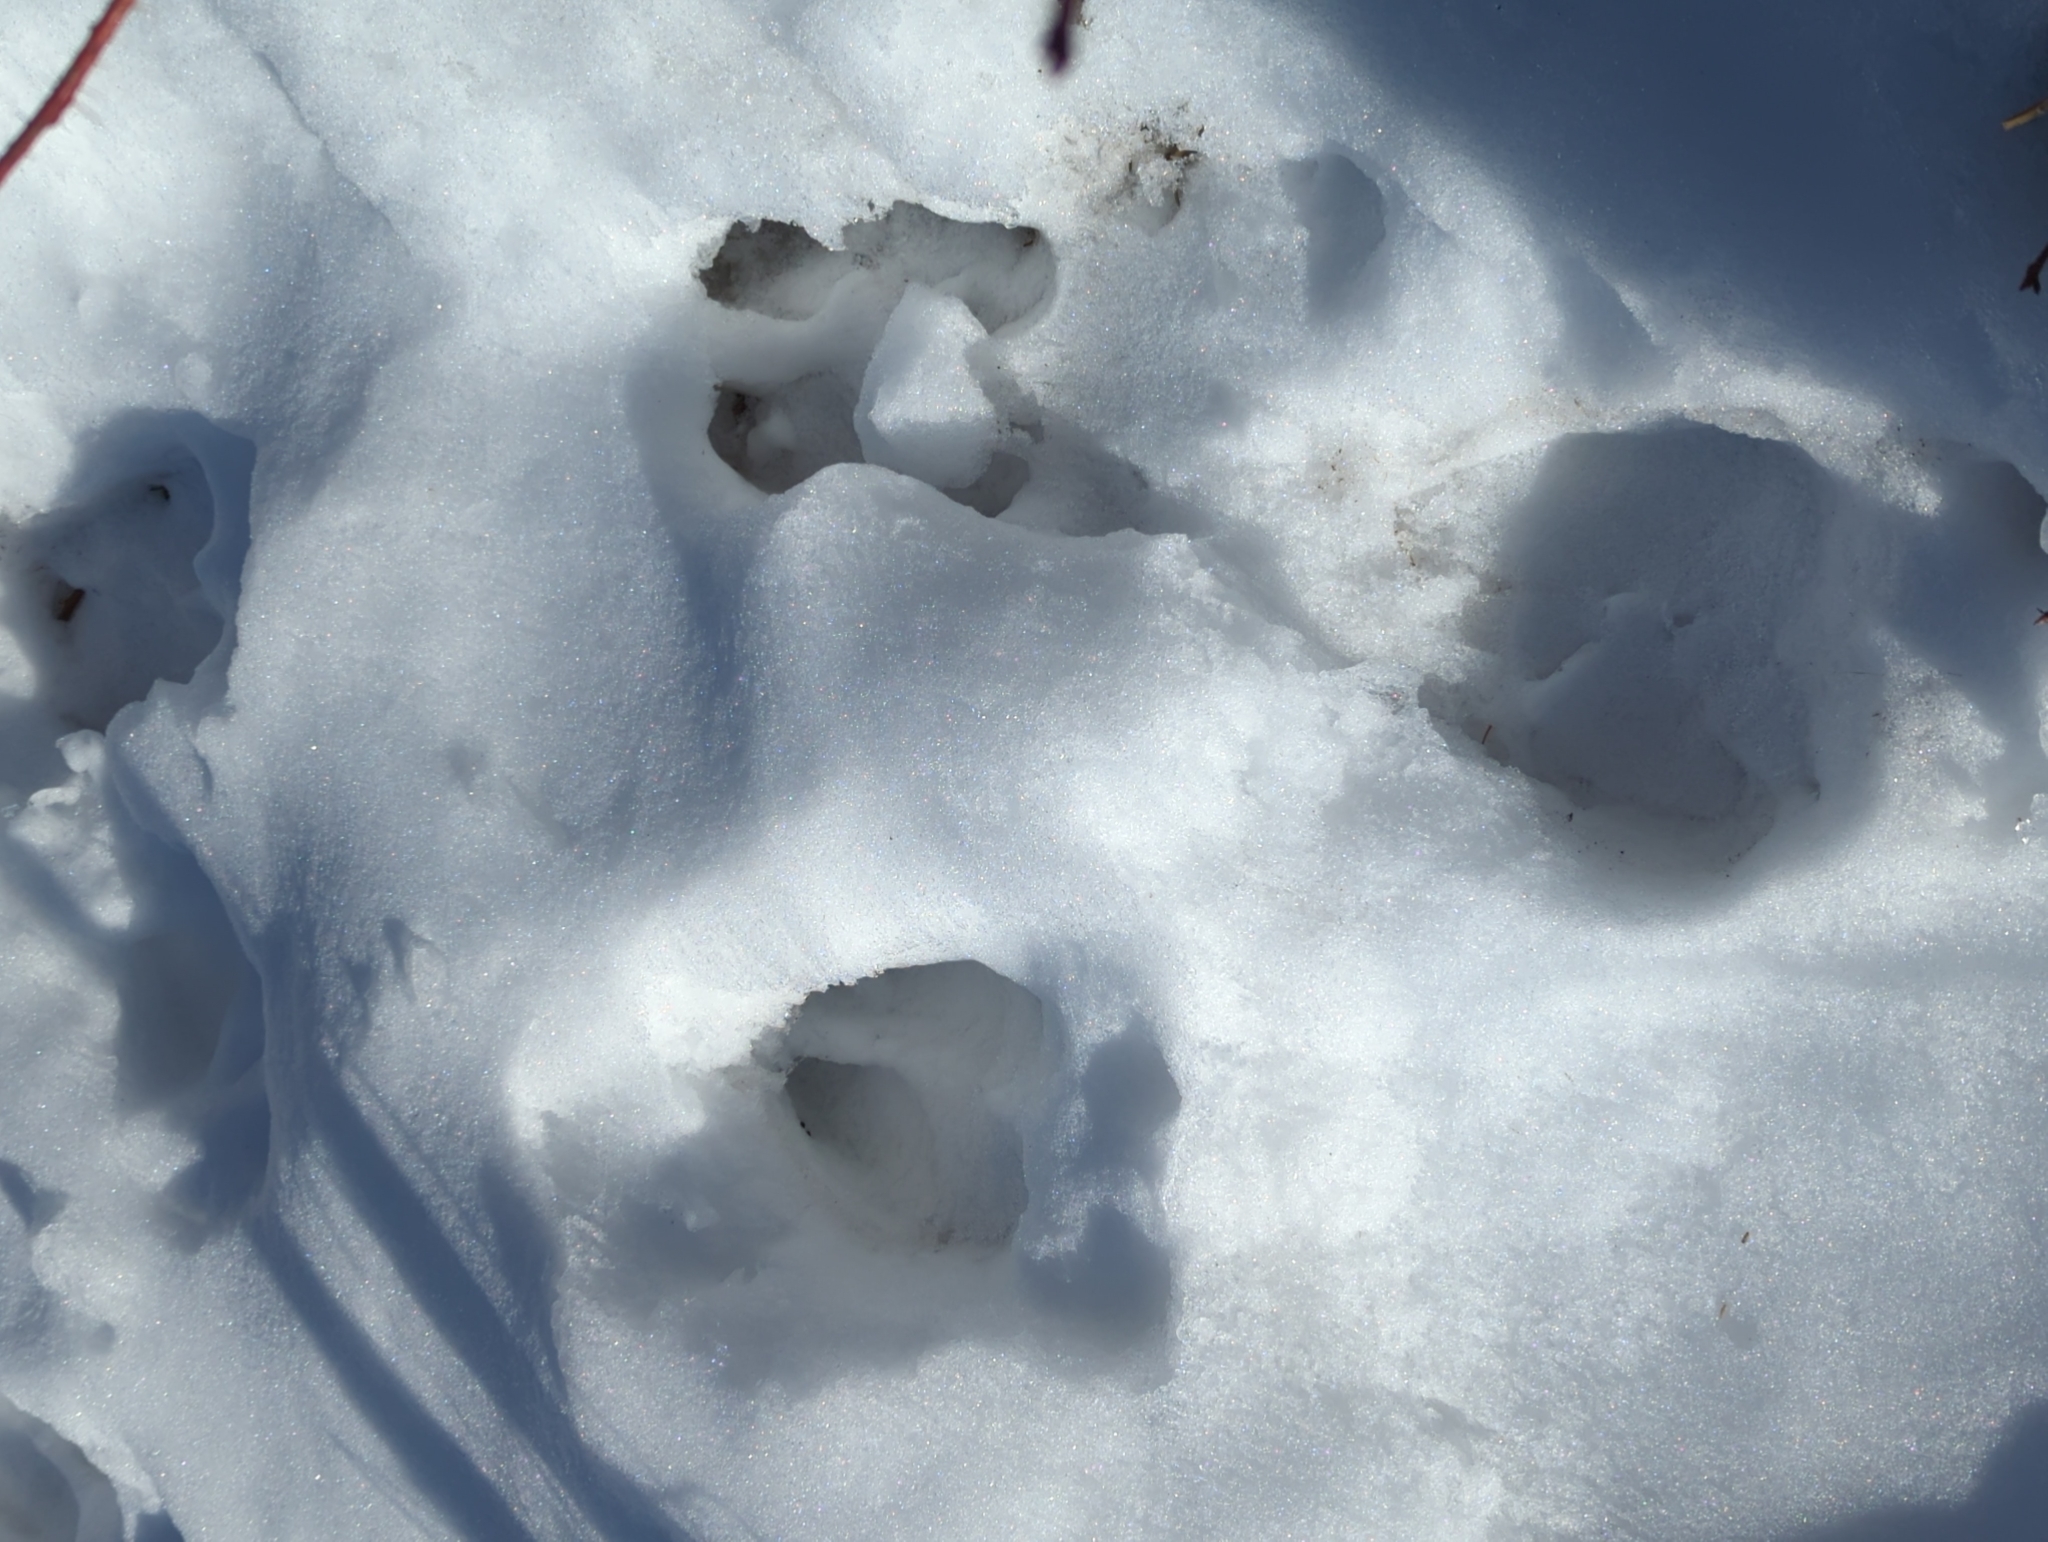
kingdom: Animalia
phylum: Chordata
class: Mammalia
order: Artiodactyla
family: Cervidae
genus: Alces
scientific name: Alces alces
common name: Moose
